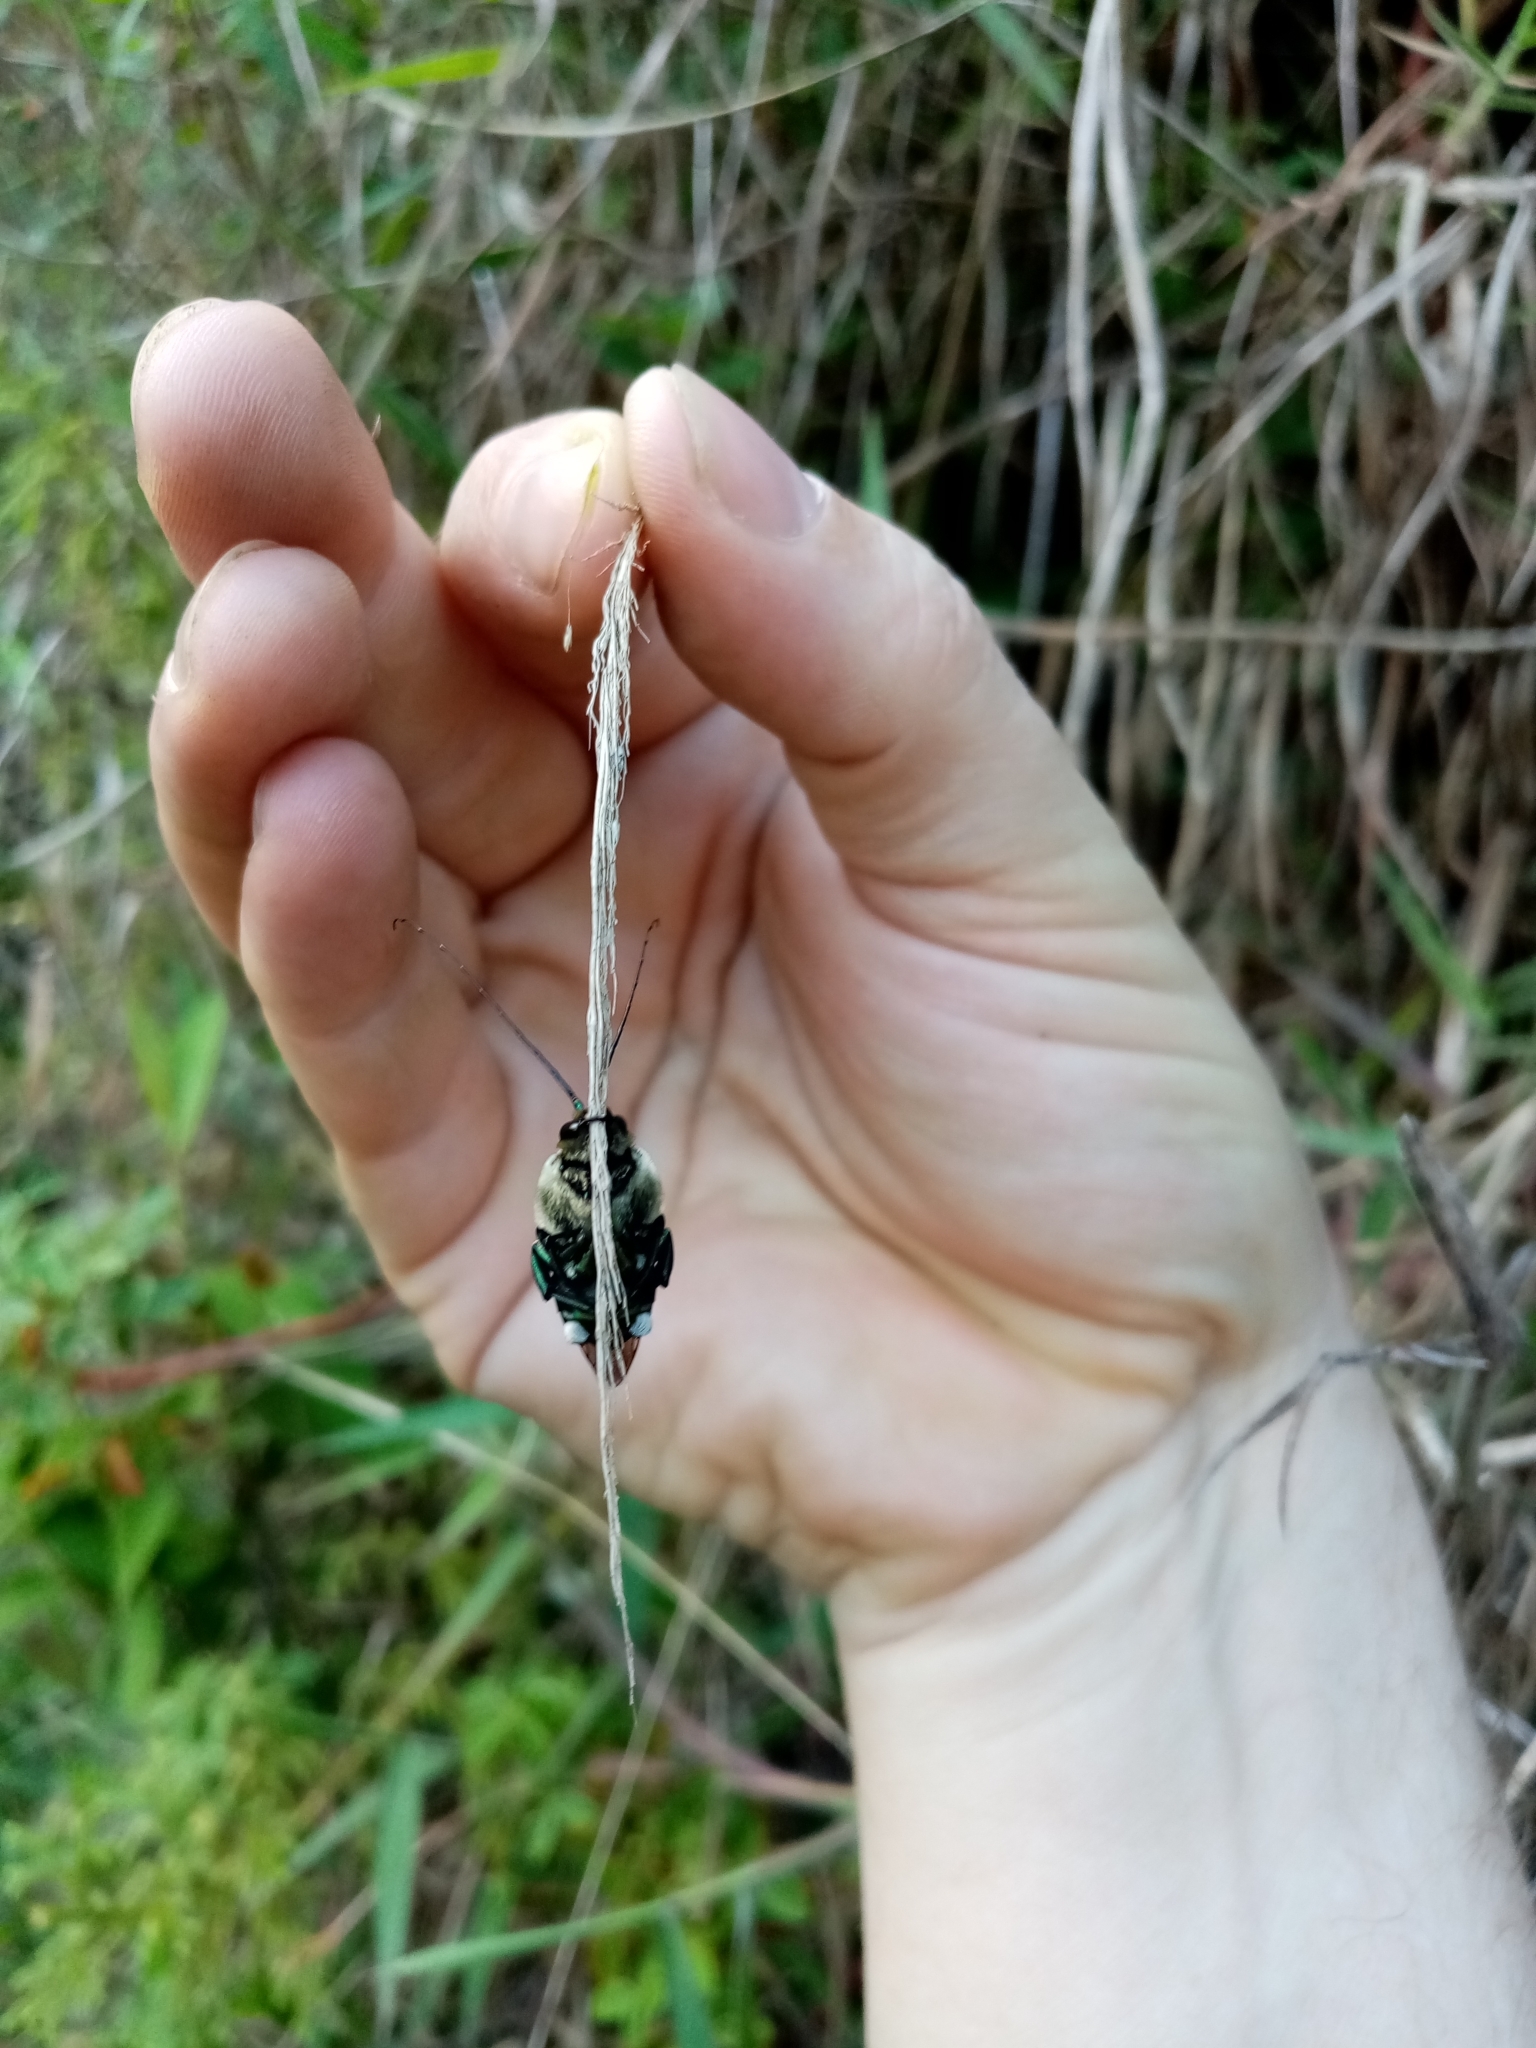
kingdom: Animalia
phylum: Arthropoda
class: Insecta
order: Hymenoptera
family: Apidae
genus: Ctenioschelus
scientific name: Ctenioschelus goryi
